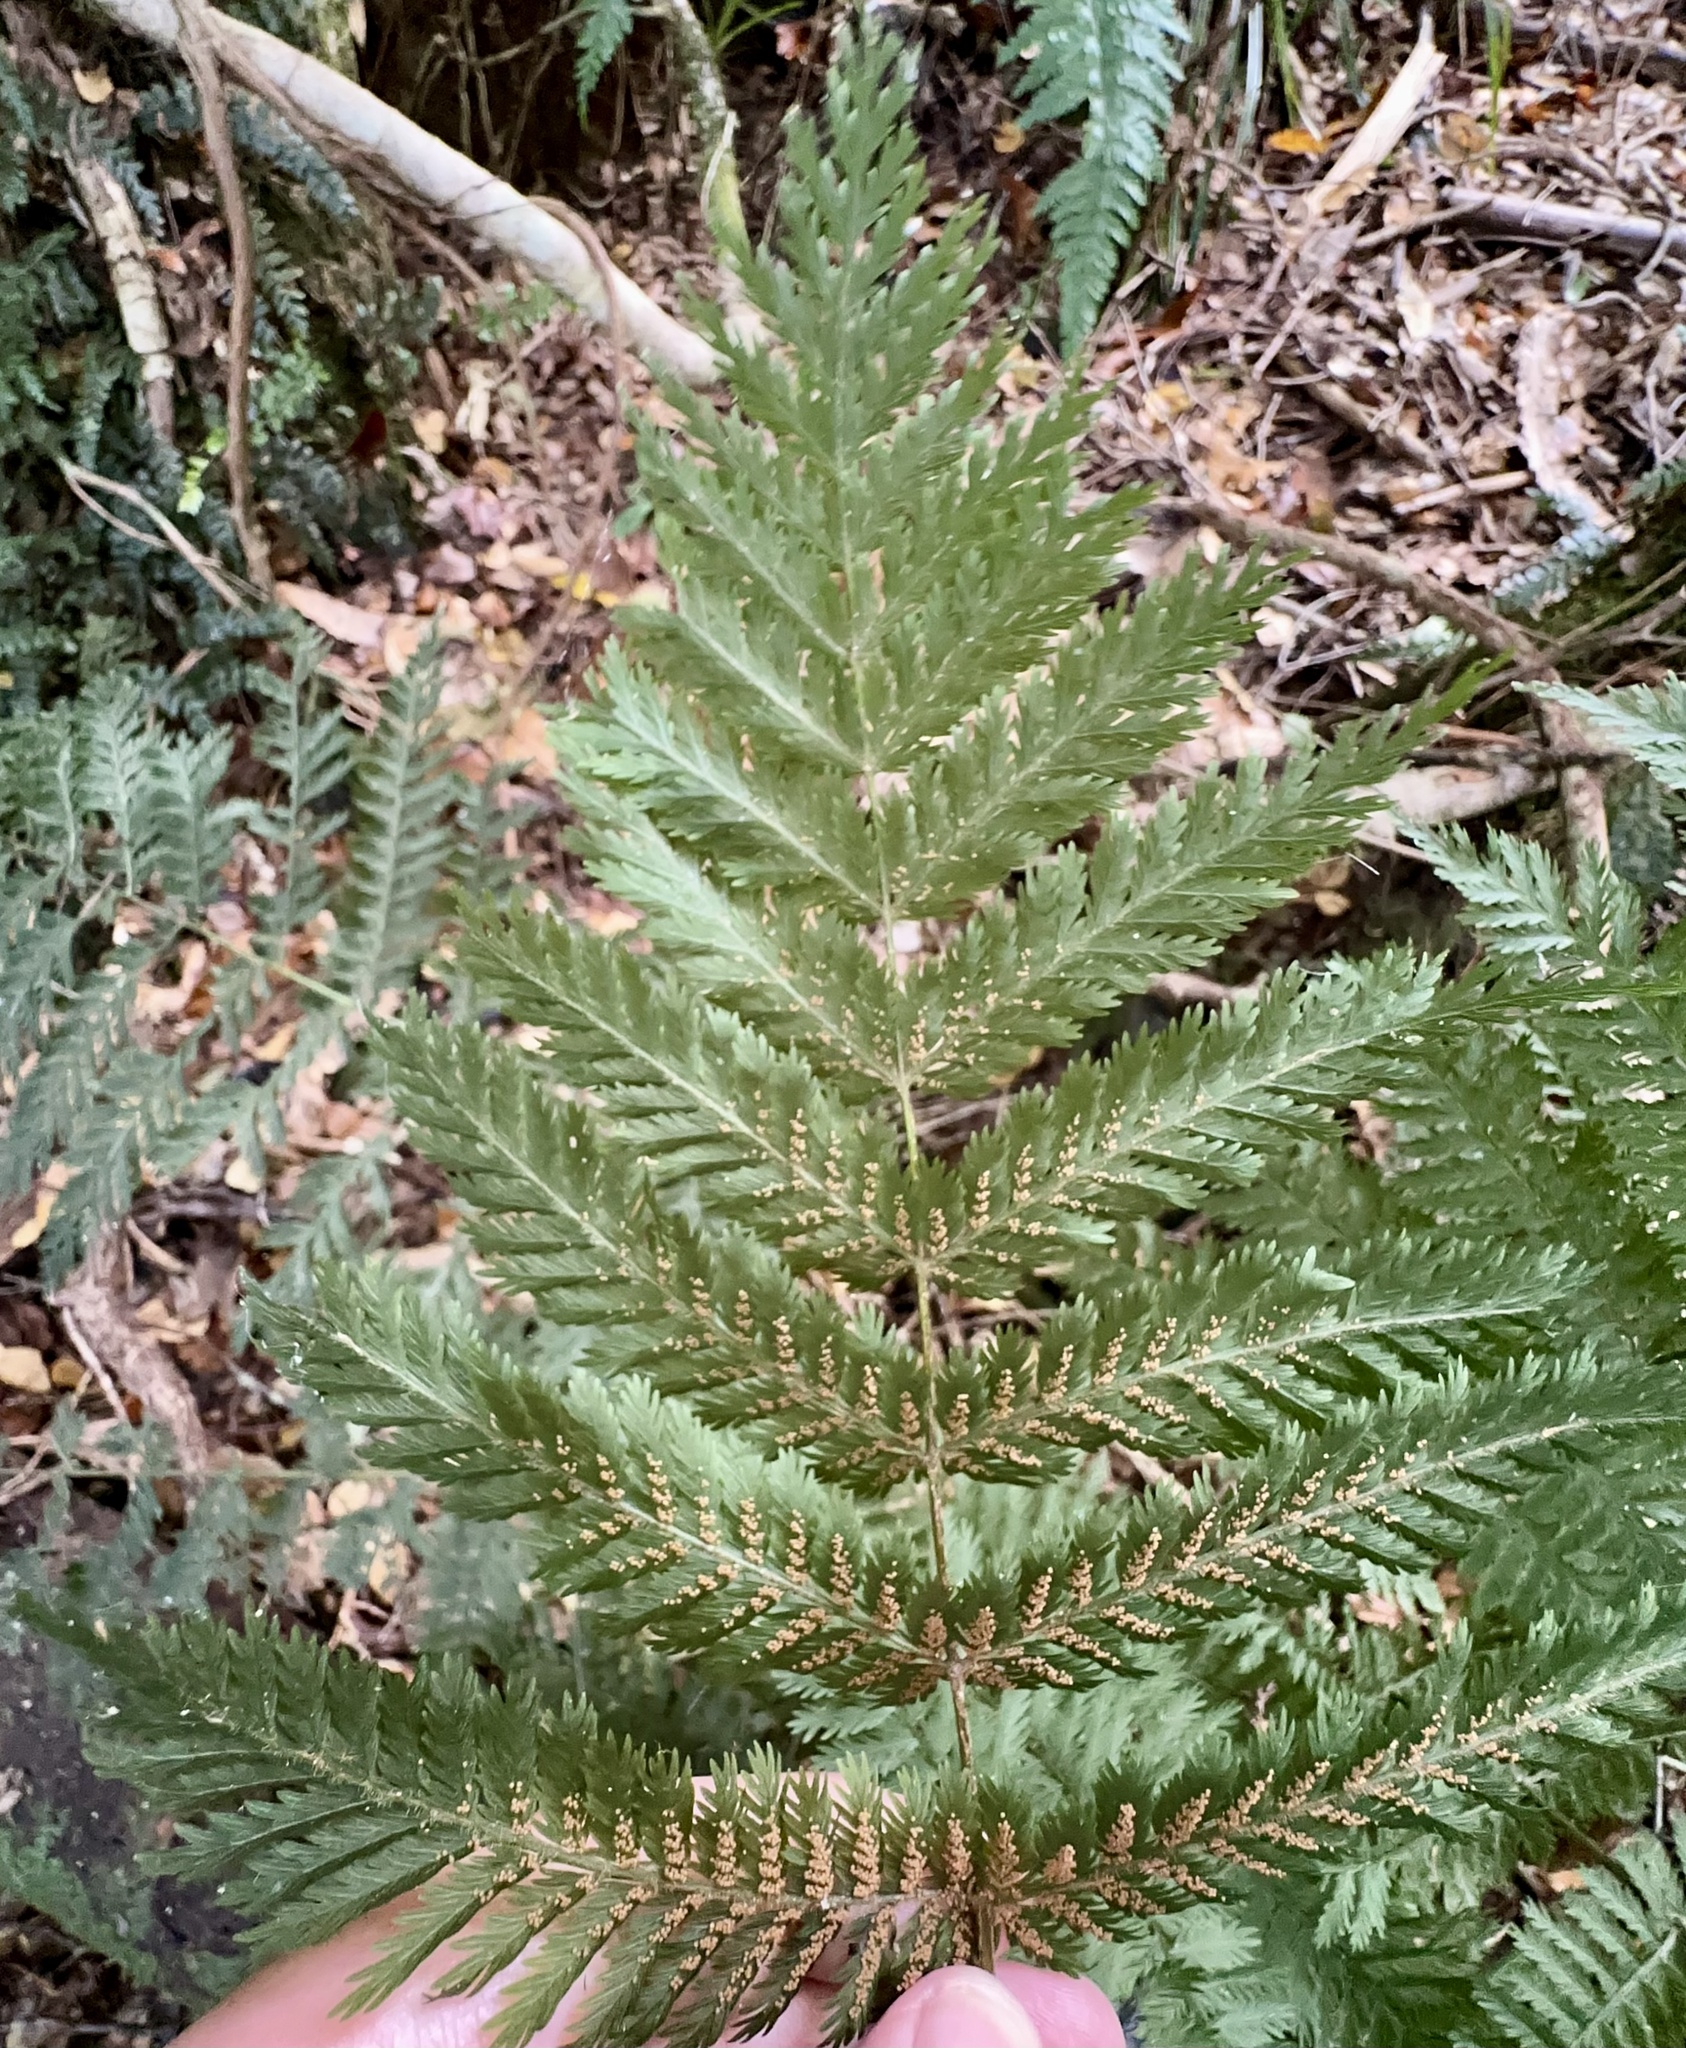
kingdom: Plantae
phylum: Tracheophyta
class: Polypodiopsida
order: Osmundales
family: Osmundaceae
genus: Leptopteris
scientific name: Leptopteris hymenophylloides
